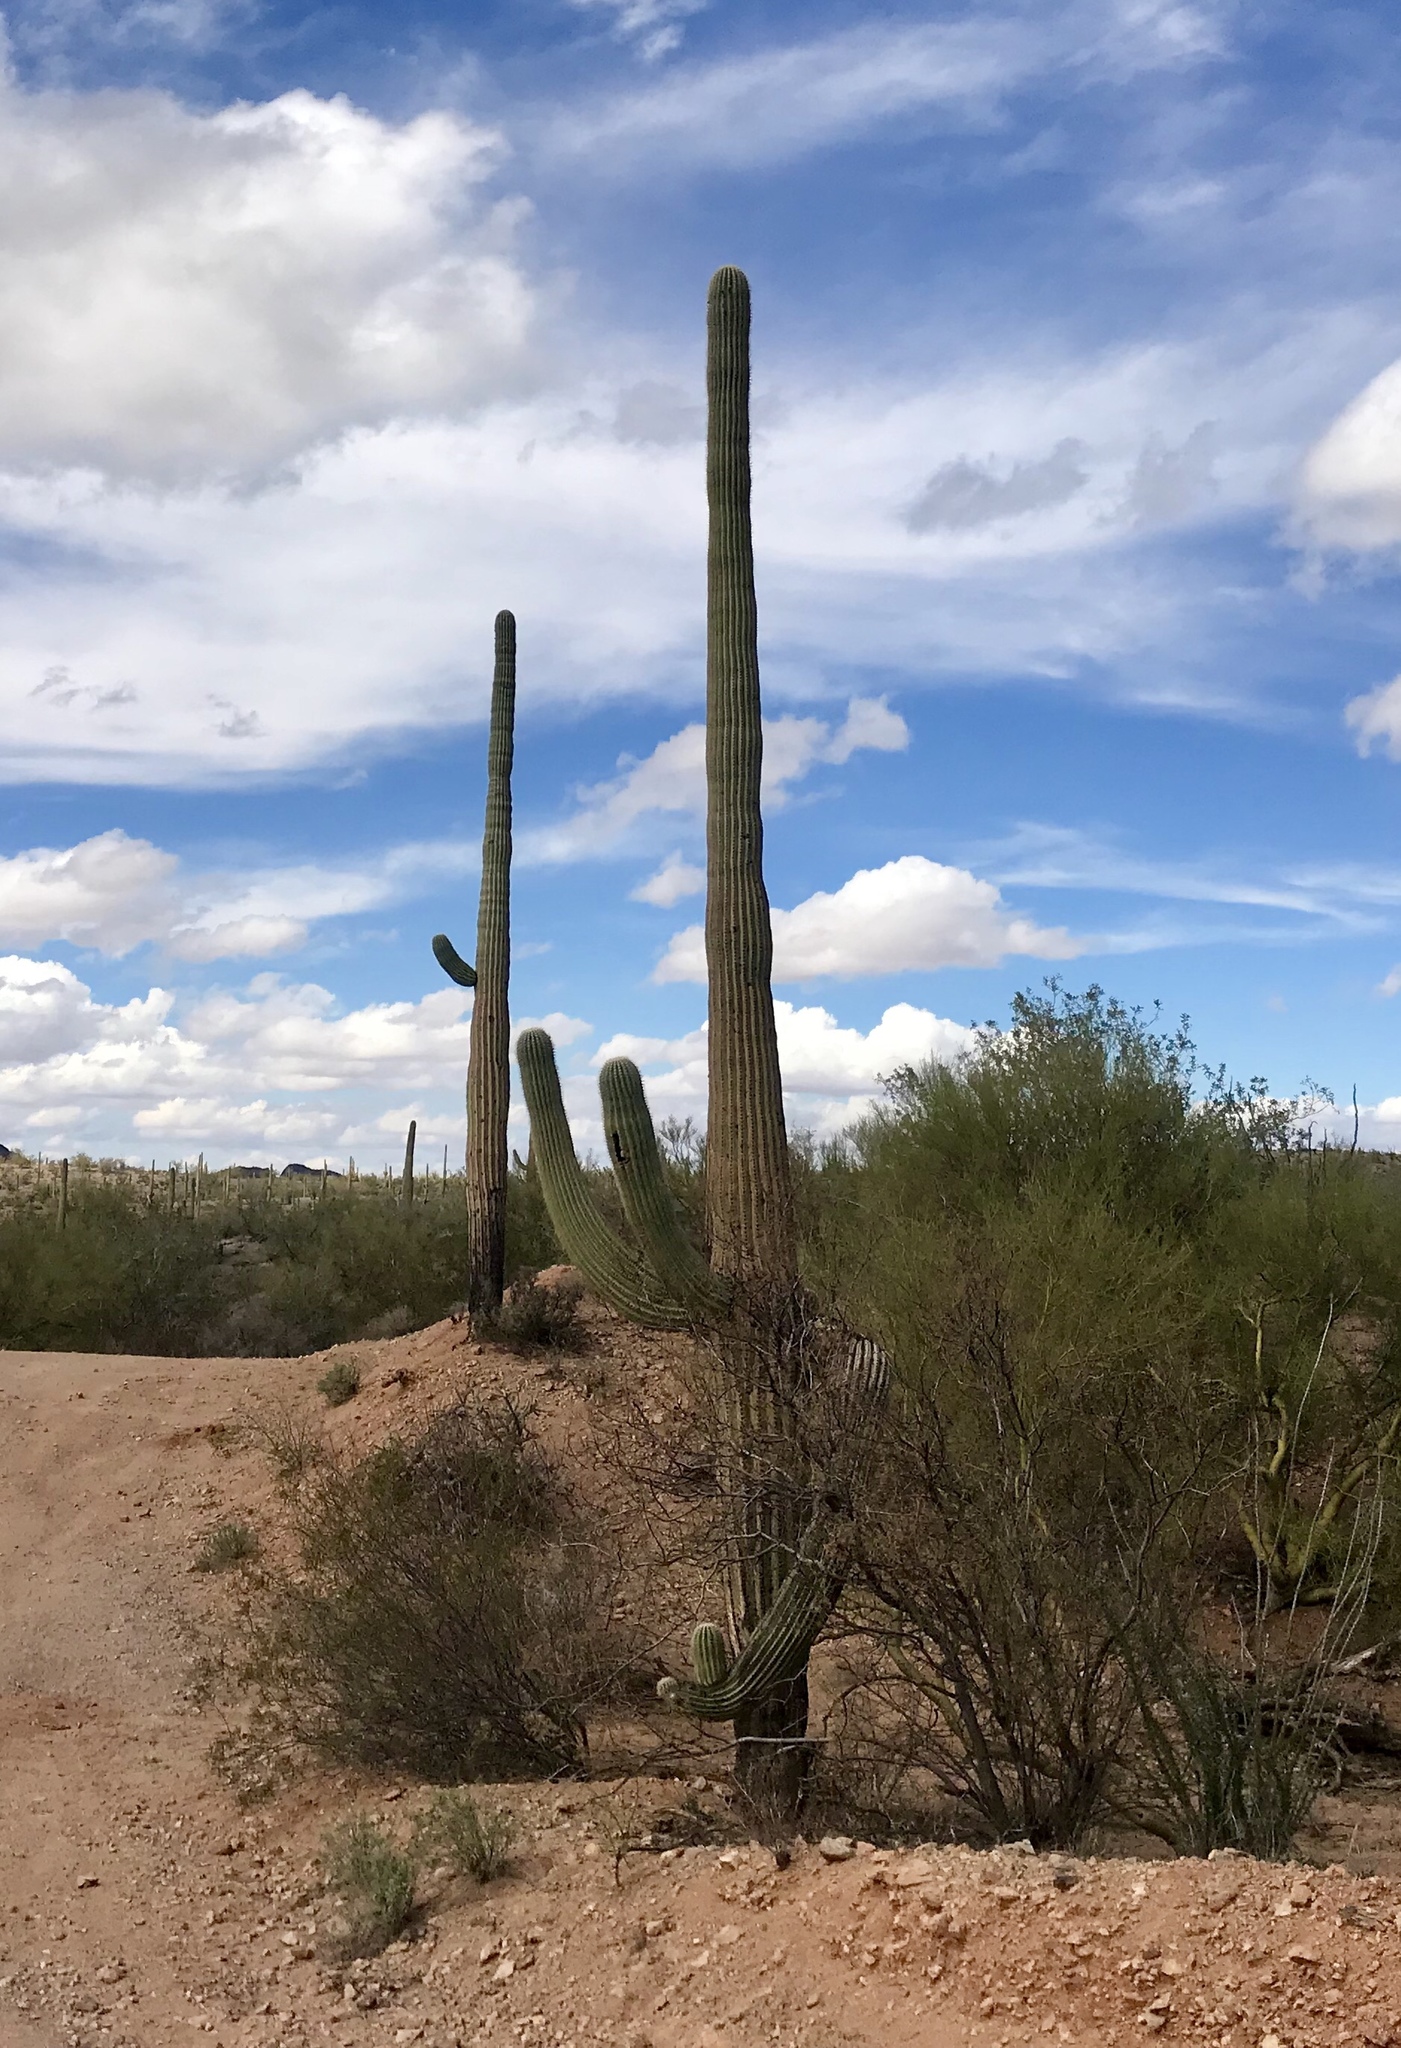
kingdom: Plantae
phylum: Tracheophyta
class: Magnoliopsida
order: Caryophyllales
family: Cactaceae
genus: Carnegiea
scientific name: Carnegiea gigantea
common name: Saguaro
